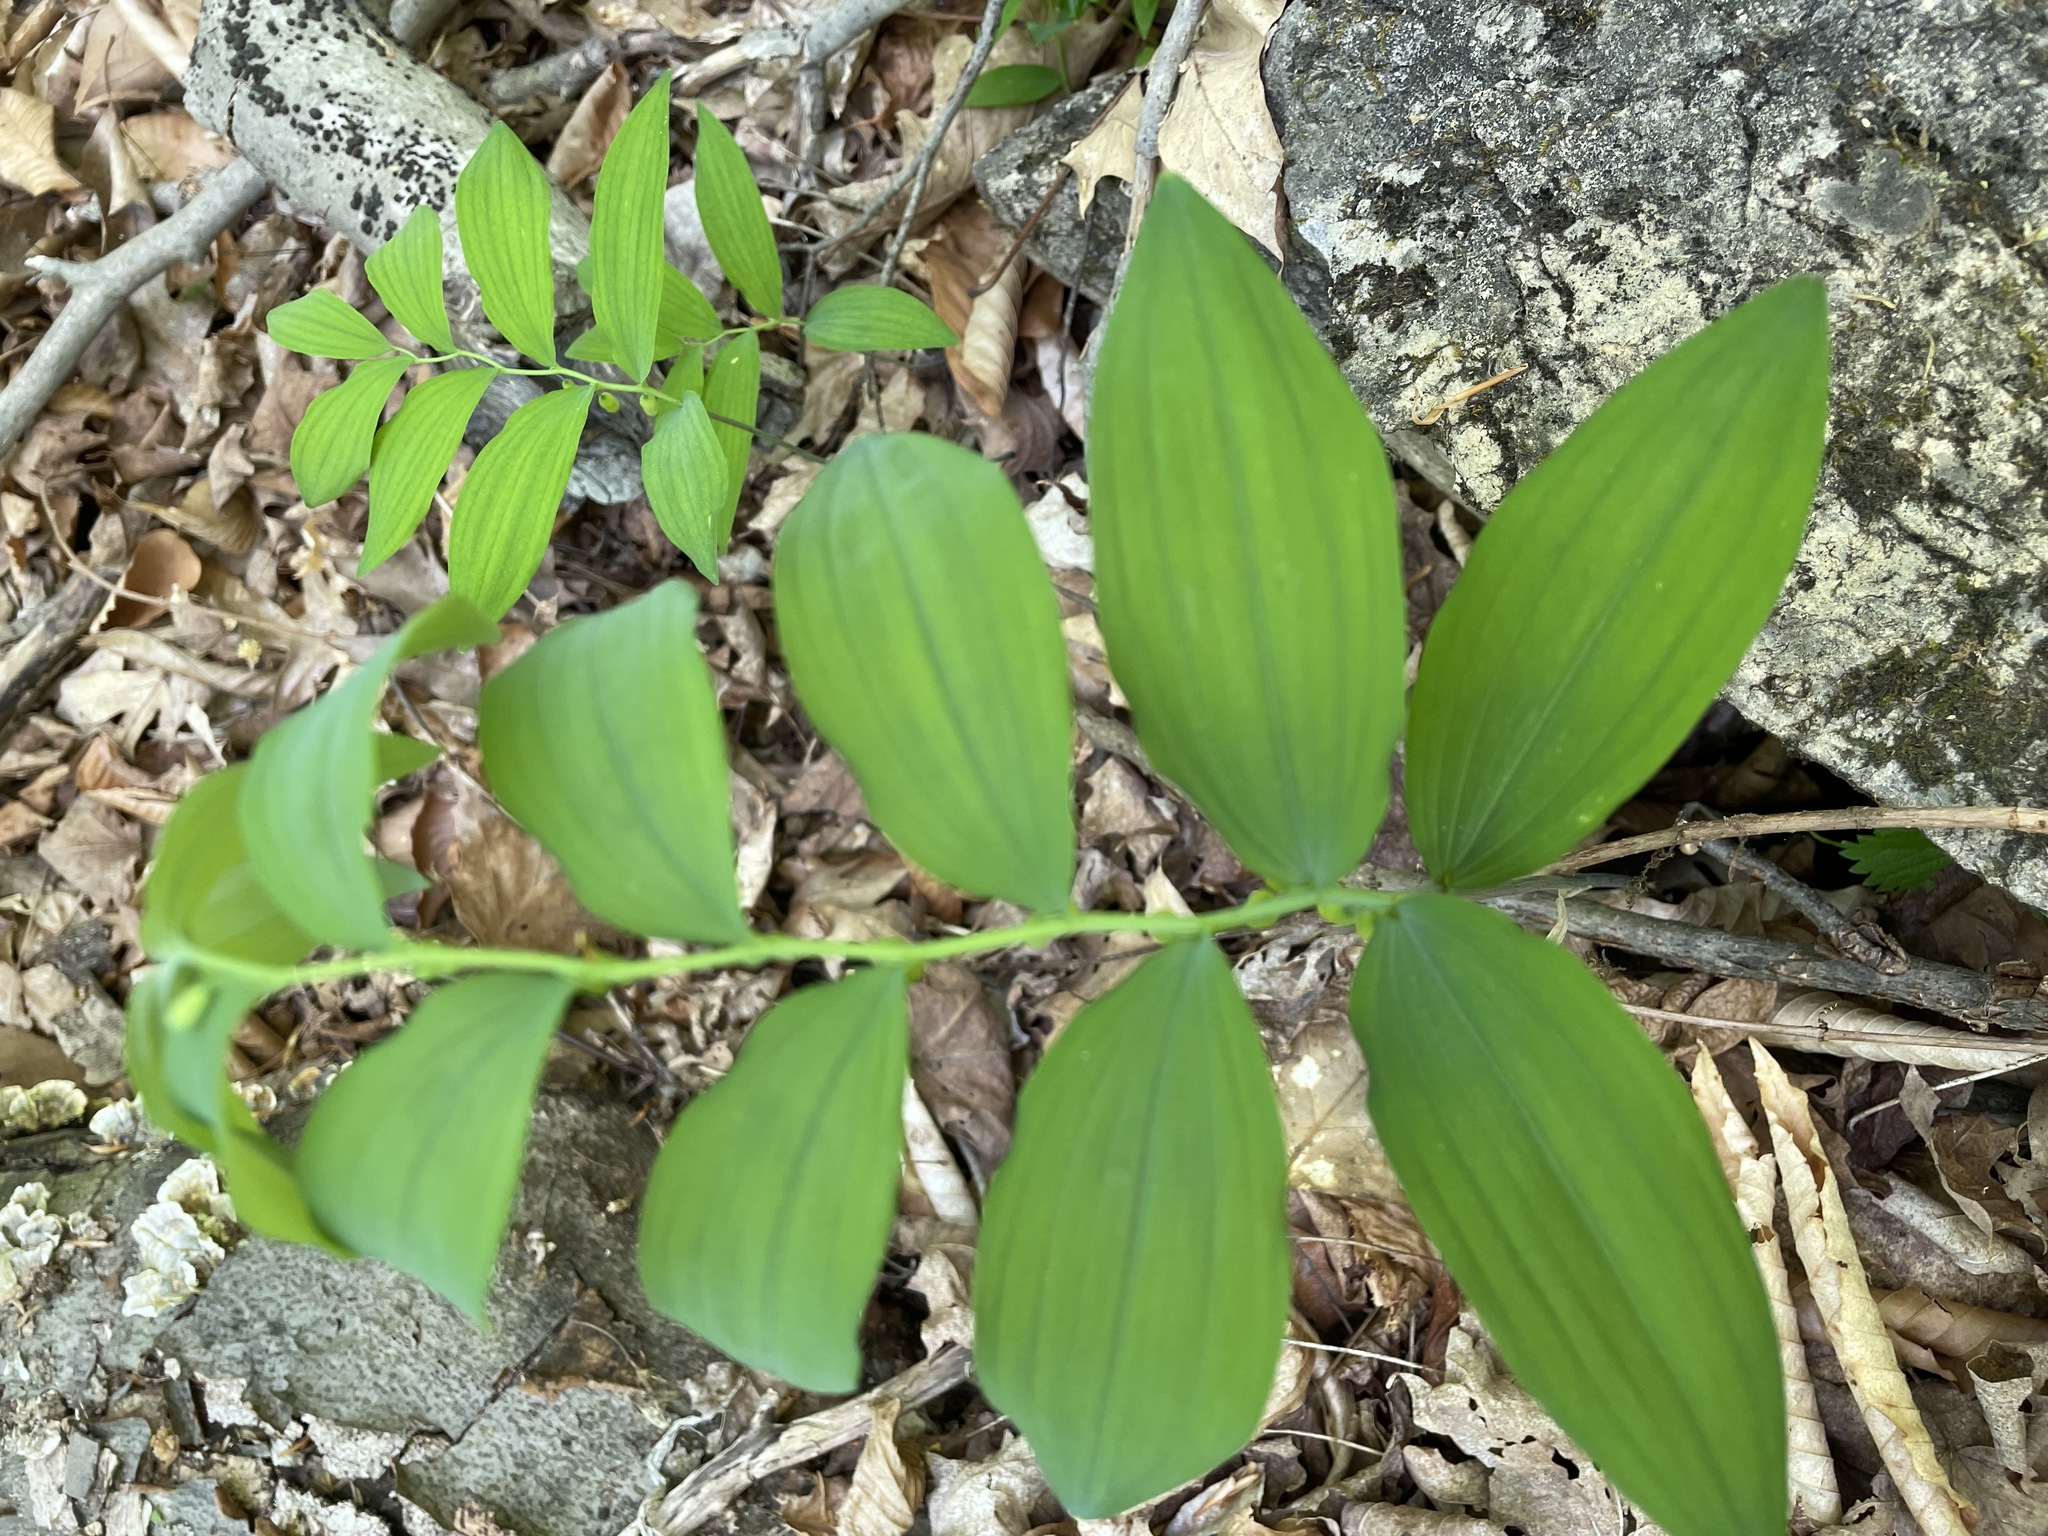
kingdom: Plantae
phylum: Tracheophyta
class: Liliopsida
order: Asparagales
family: Asparagaceae
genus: Polygonatum
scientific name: Polygonatum pubescens
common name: Downy solomon's seal
